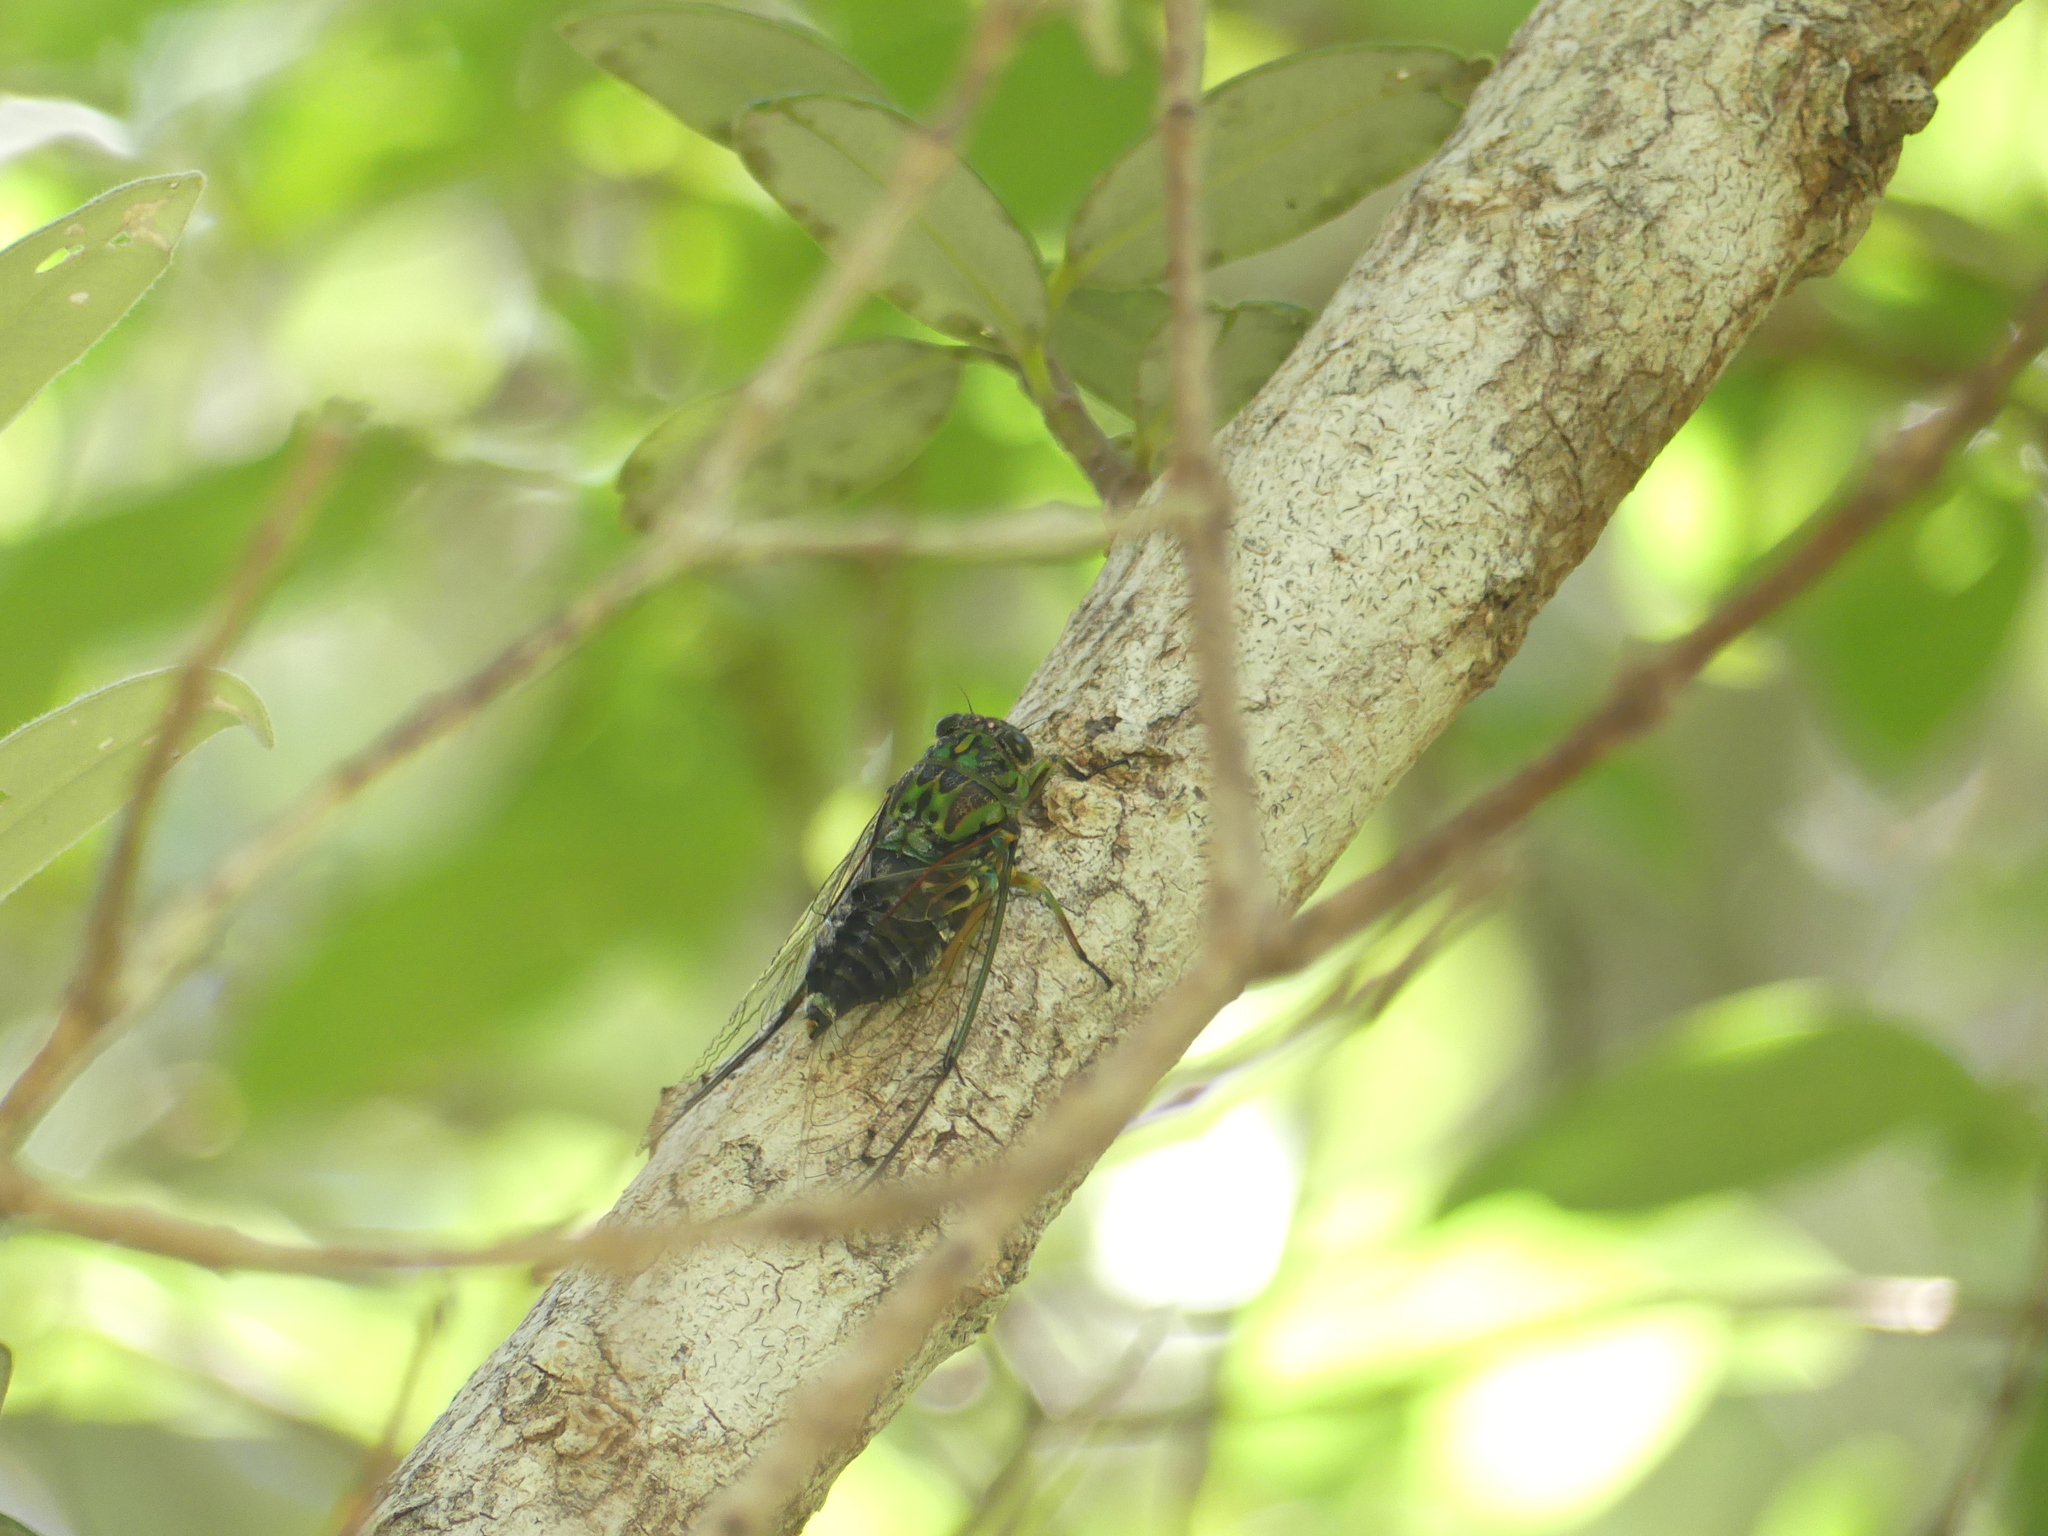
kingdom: Animalia
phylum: Arthropoda
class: Insecta
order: Hemiptera
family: Cicadidae
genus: Amphipsalta
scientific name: Amphipsalta zelandica
